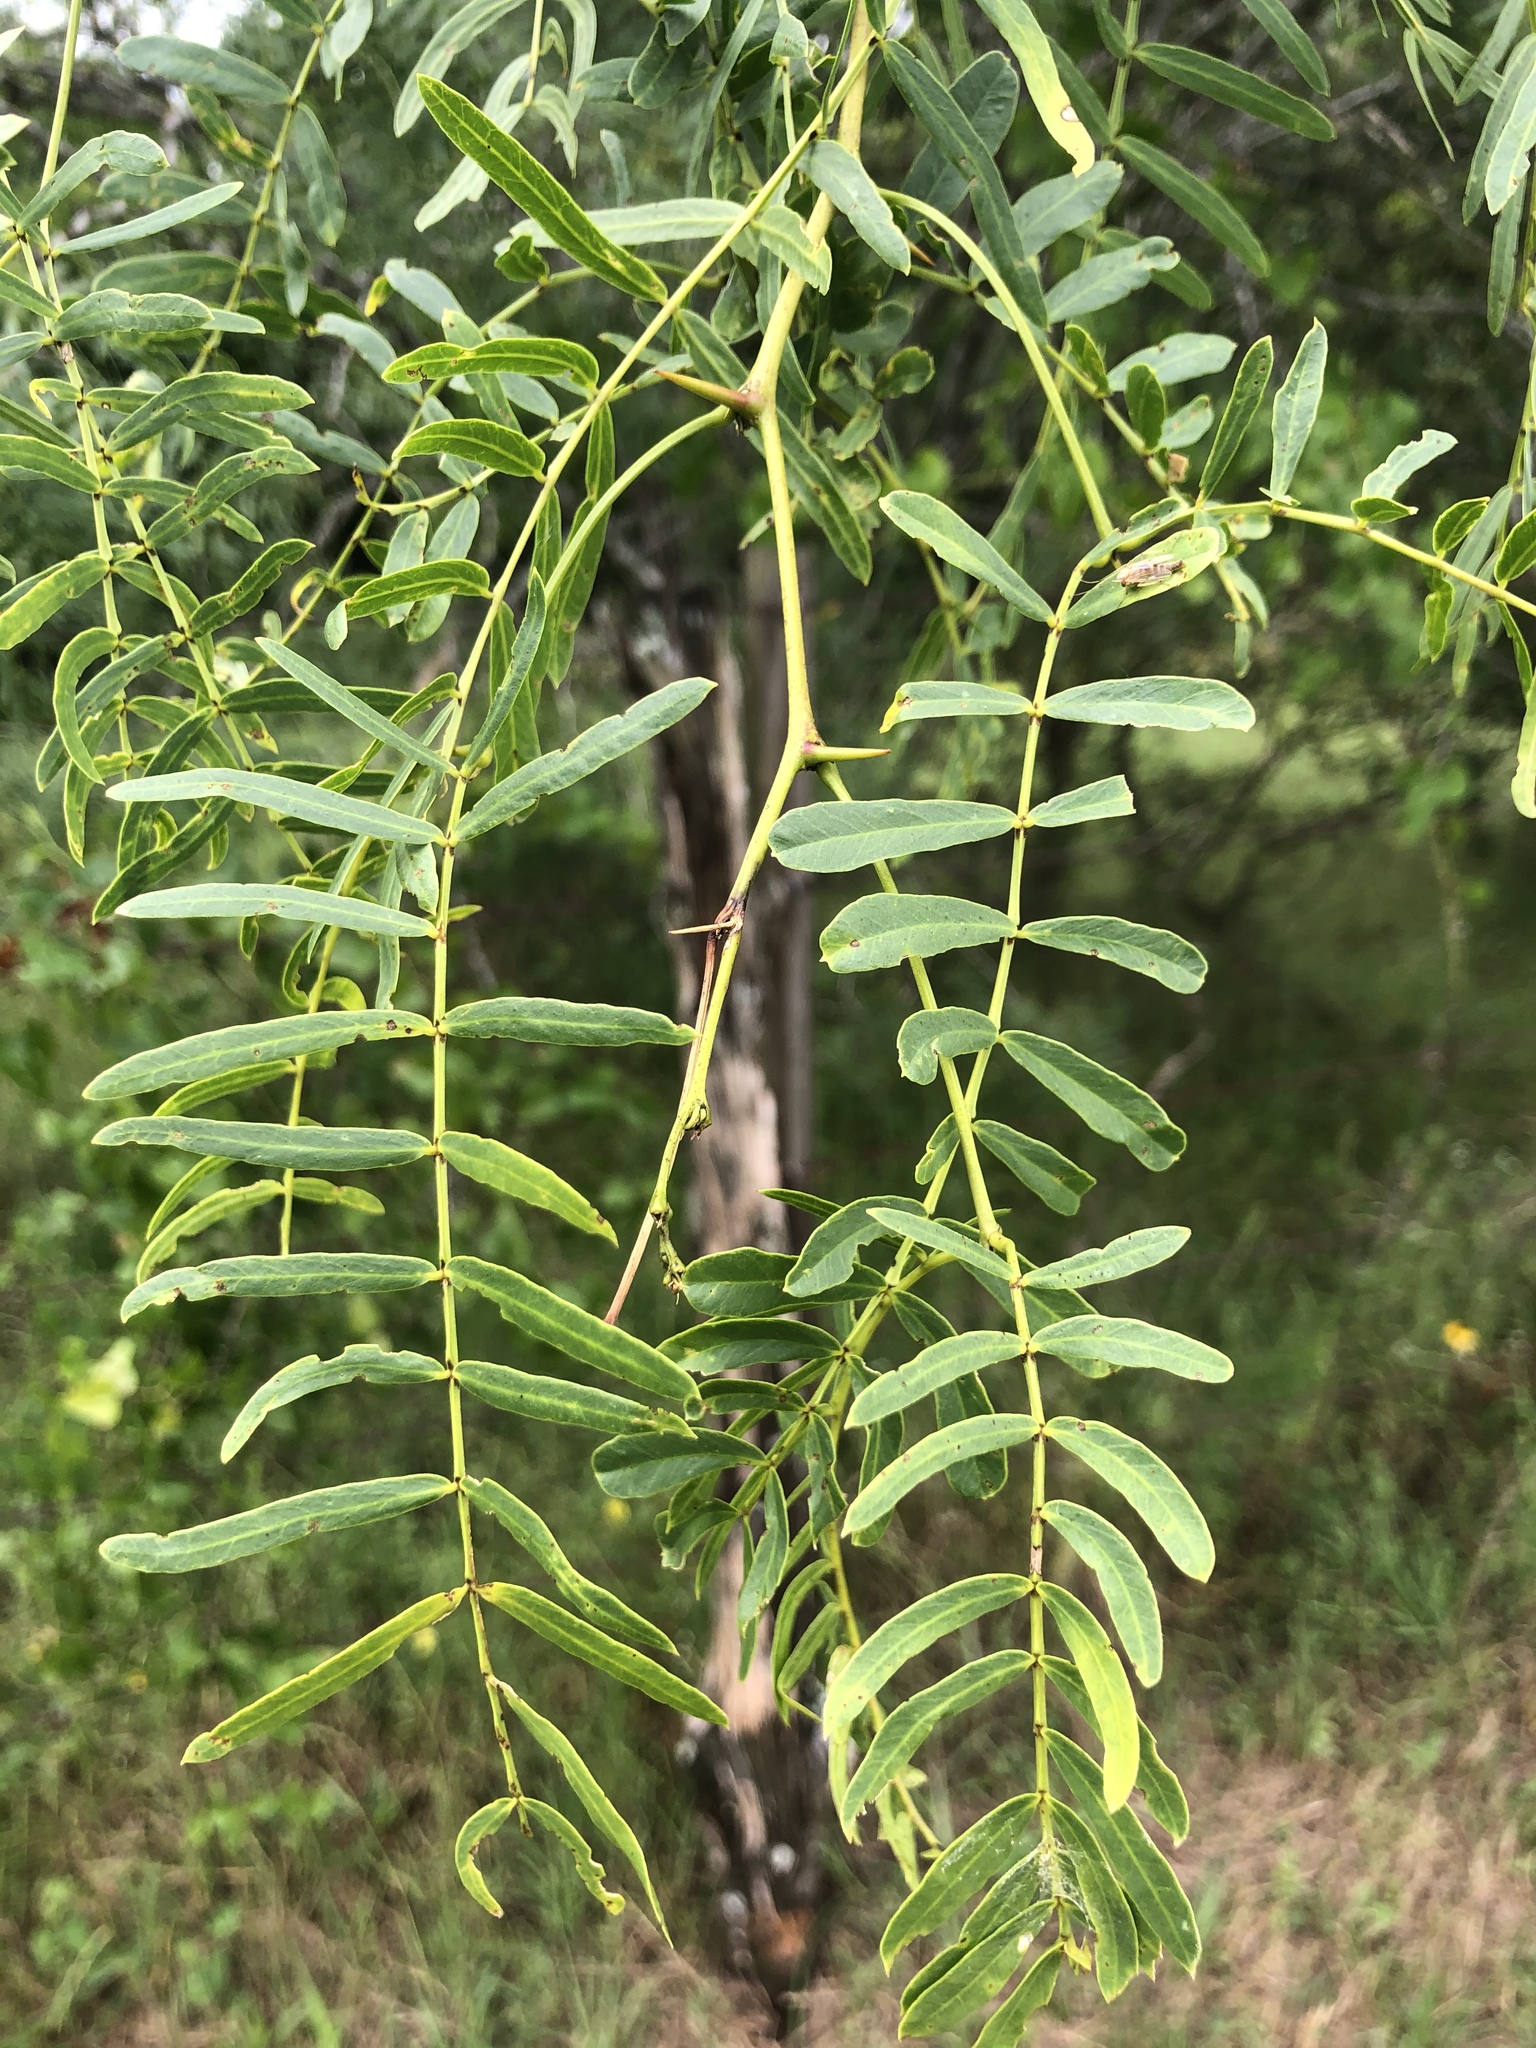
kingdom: Plantae
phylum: Tracheophyta
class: Magnoliopsida
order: Fabales
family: Fabaceae
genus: Prosopis
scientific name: Prosopis glandulosa
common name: Honey mesquite
